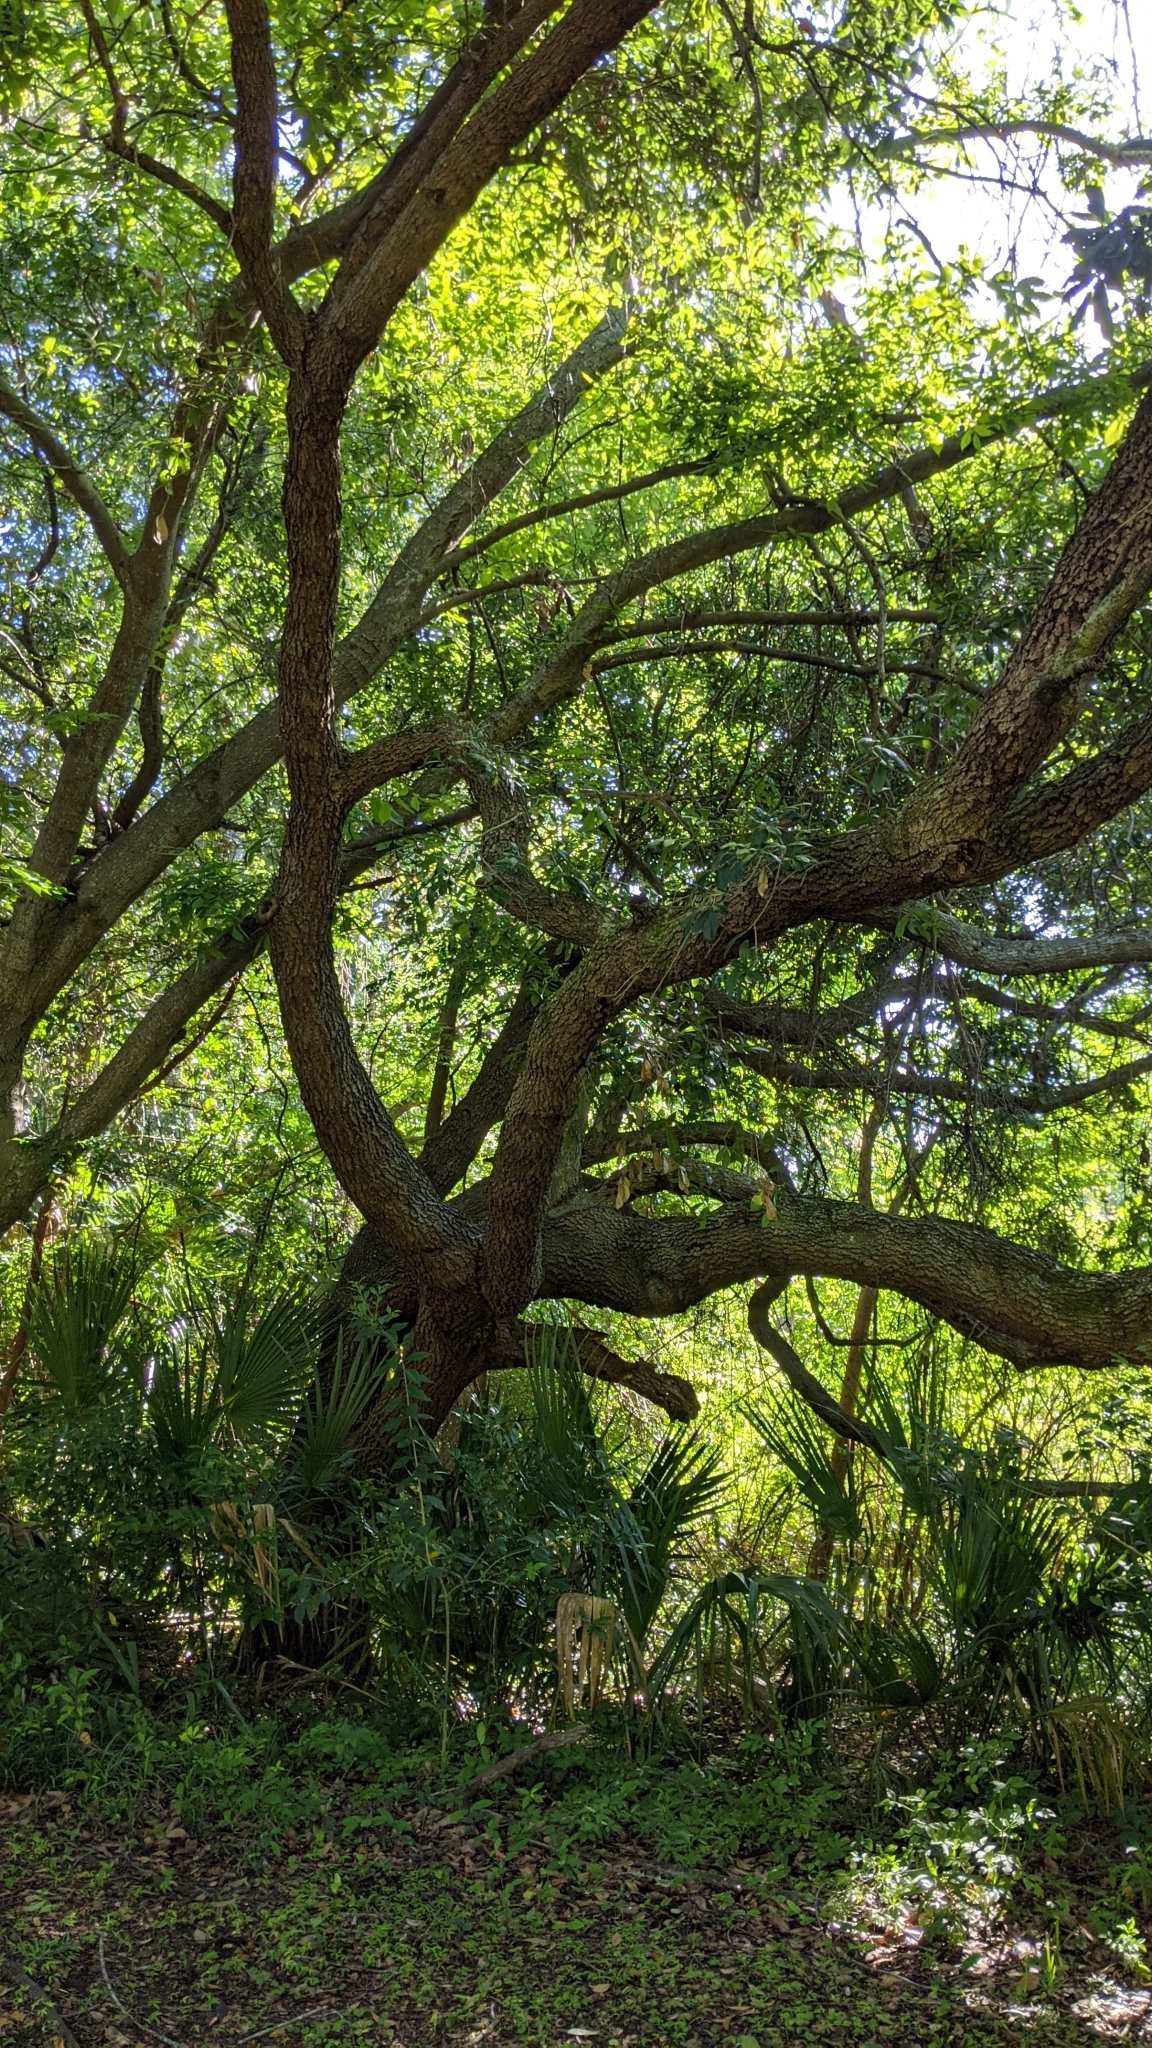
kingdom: Plantae
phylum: Tracheophyta
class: Magnoliopsida
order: Fagales
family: Fagaceae
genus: Quercus
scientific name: Quercus virginiana
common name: Southern live oak
